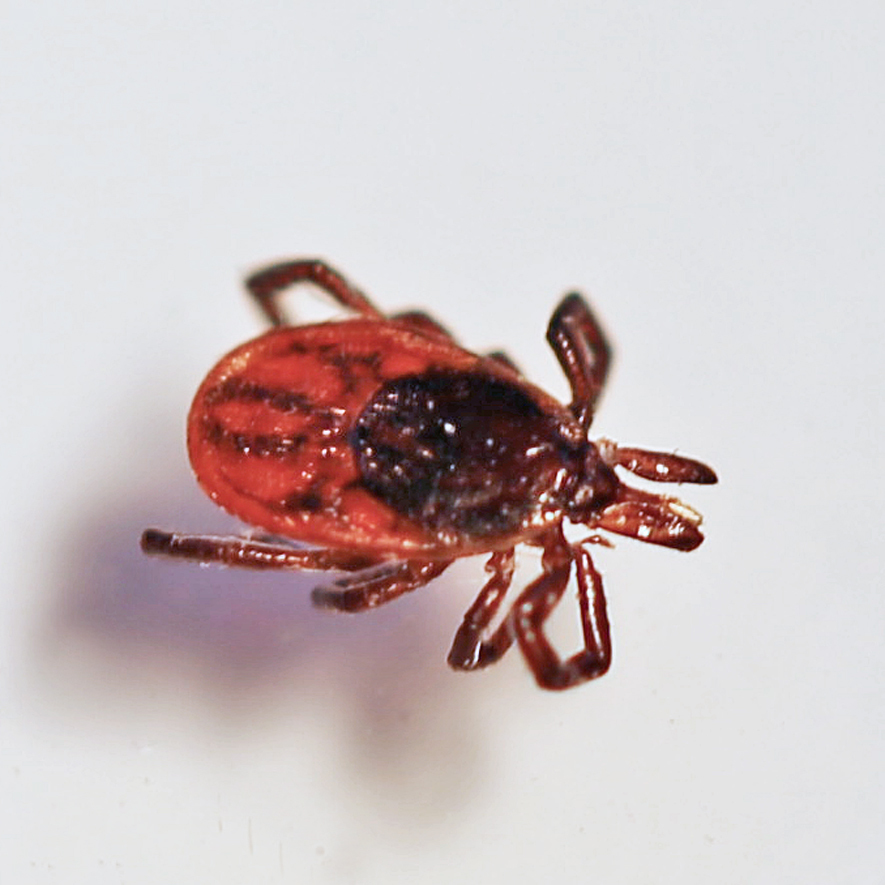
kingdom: Animalia
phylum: Arthropoda
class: Arachnida
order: Ixodida
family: Ixodidae
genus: Ixodes
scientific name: Ixodes scapularis
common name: Black legged tick
